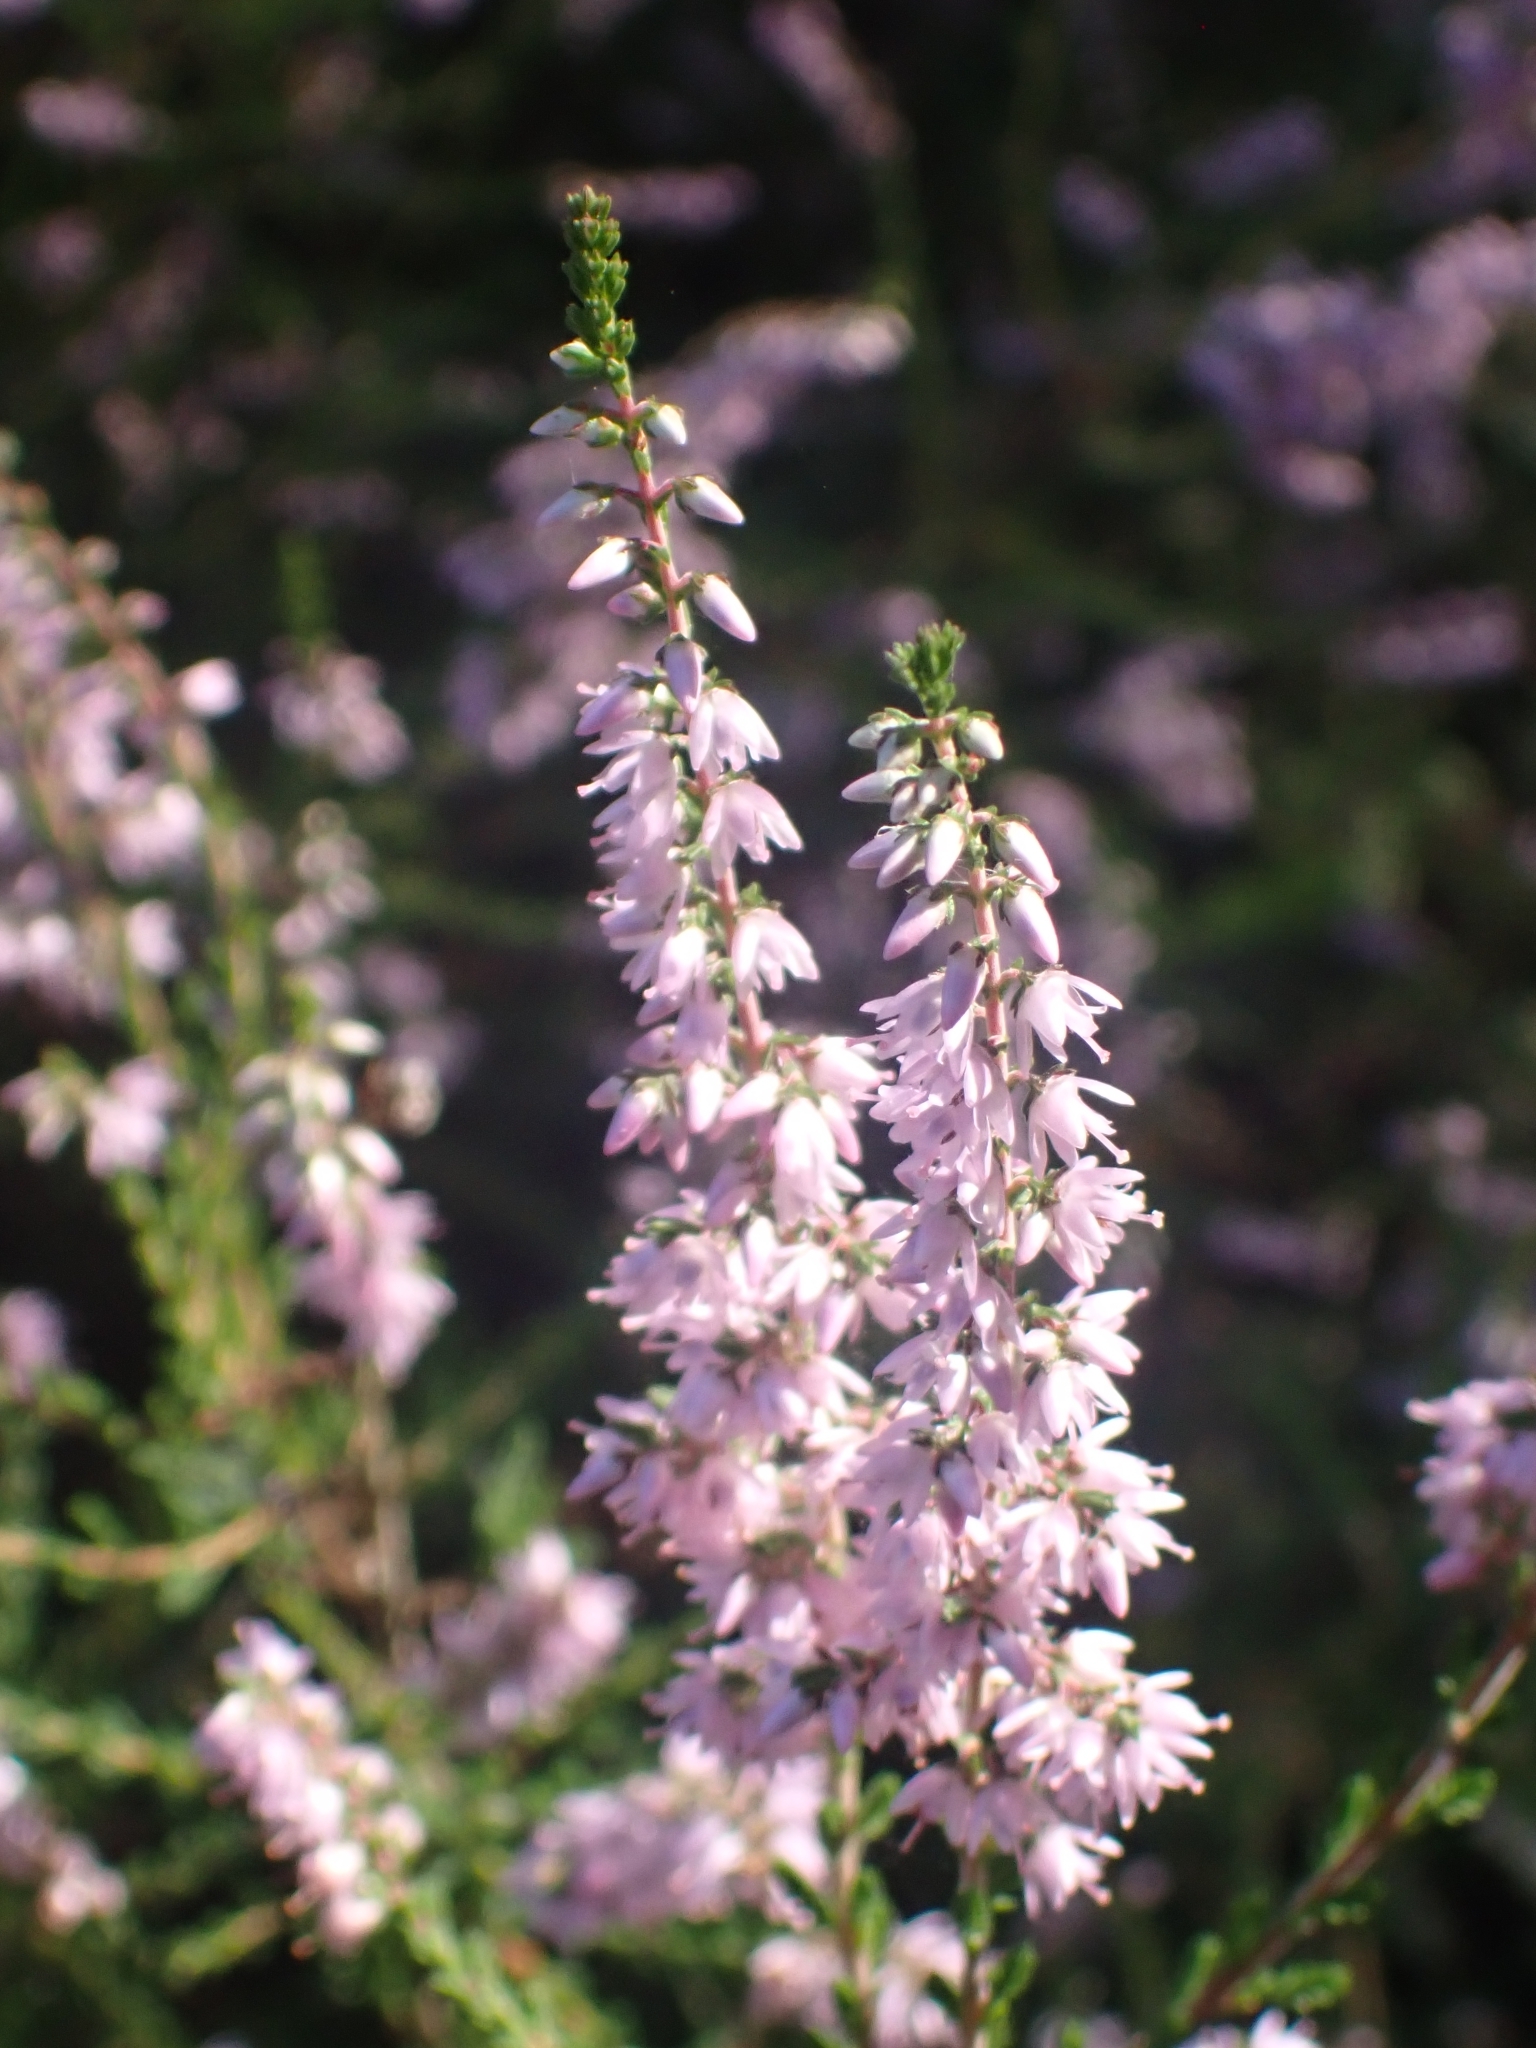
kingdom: Plantae
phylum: Tracheophyta
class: Magnoliopsida
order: Ericales
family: Ericaceae
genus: Calluna
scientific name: Calluna vulgaris
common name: Heather
